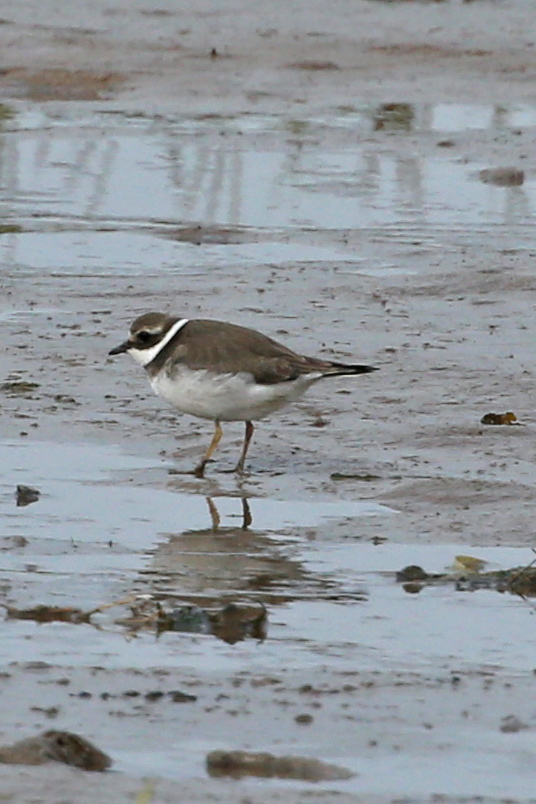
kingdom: Animalia
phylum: Chordata
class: Aves
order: Charadriiformes
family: Charadriidae
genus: Charadrius
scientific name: Charadrius hiaticula
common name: Common ringed plover
